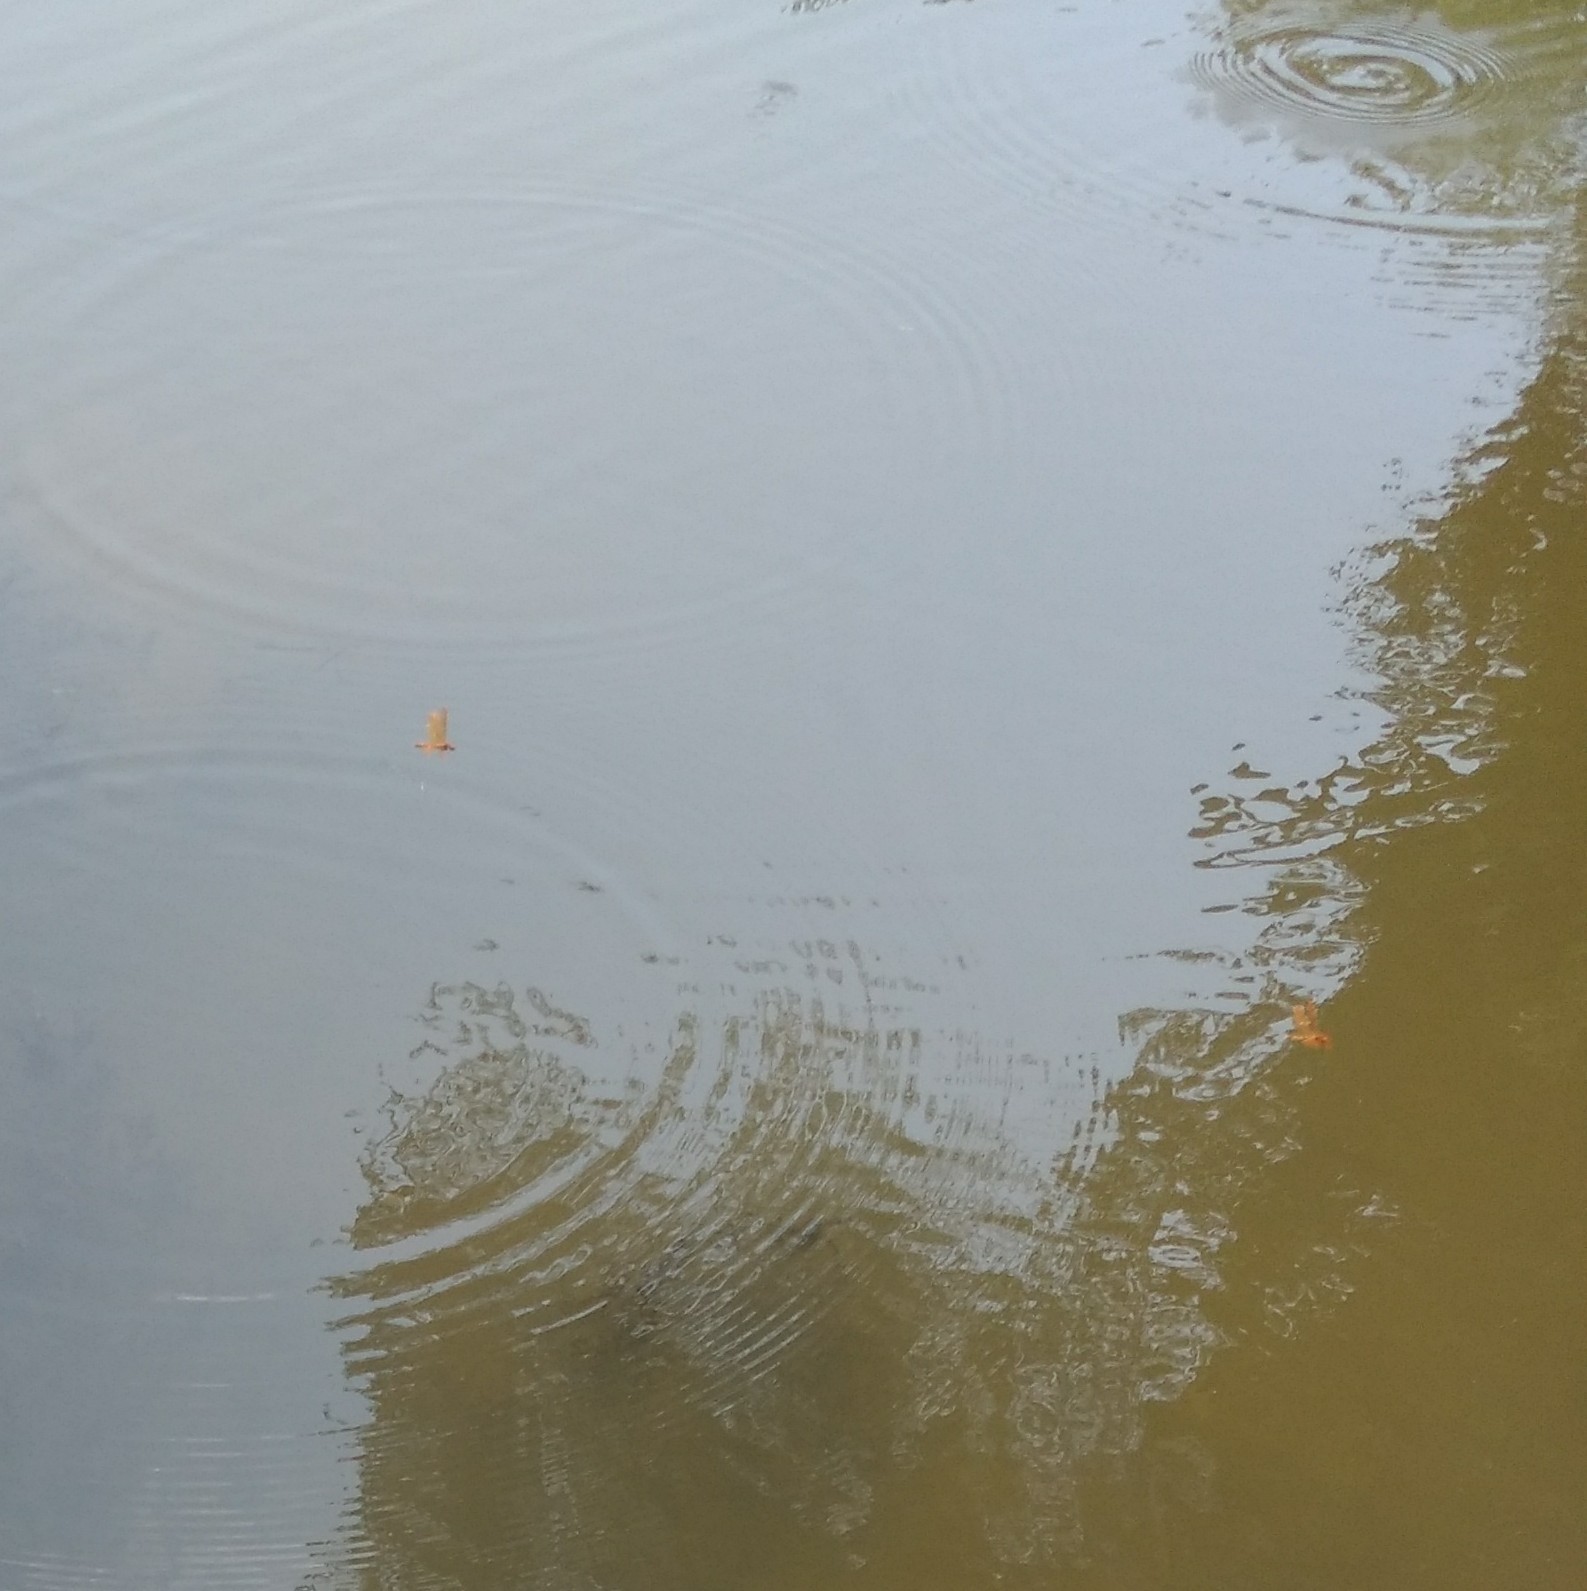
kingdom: Animalia
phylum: Arthropoda
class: Insecta
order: Odonata
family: Libellulidae
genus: Perithemis
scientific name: Perithemis tenera
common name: Eastern amberwing
